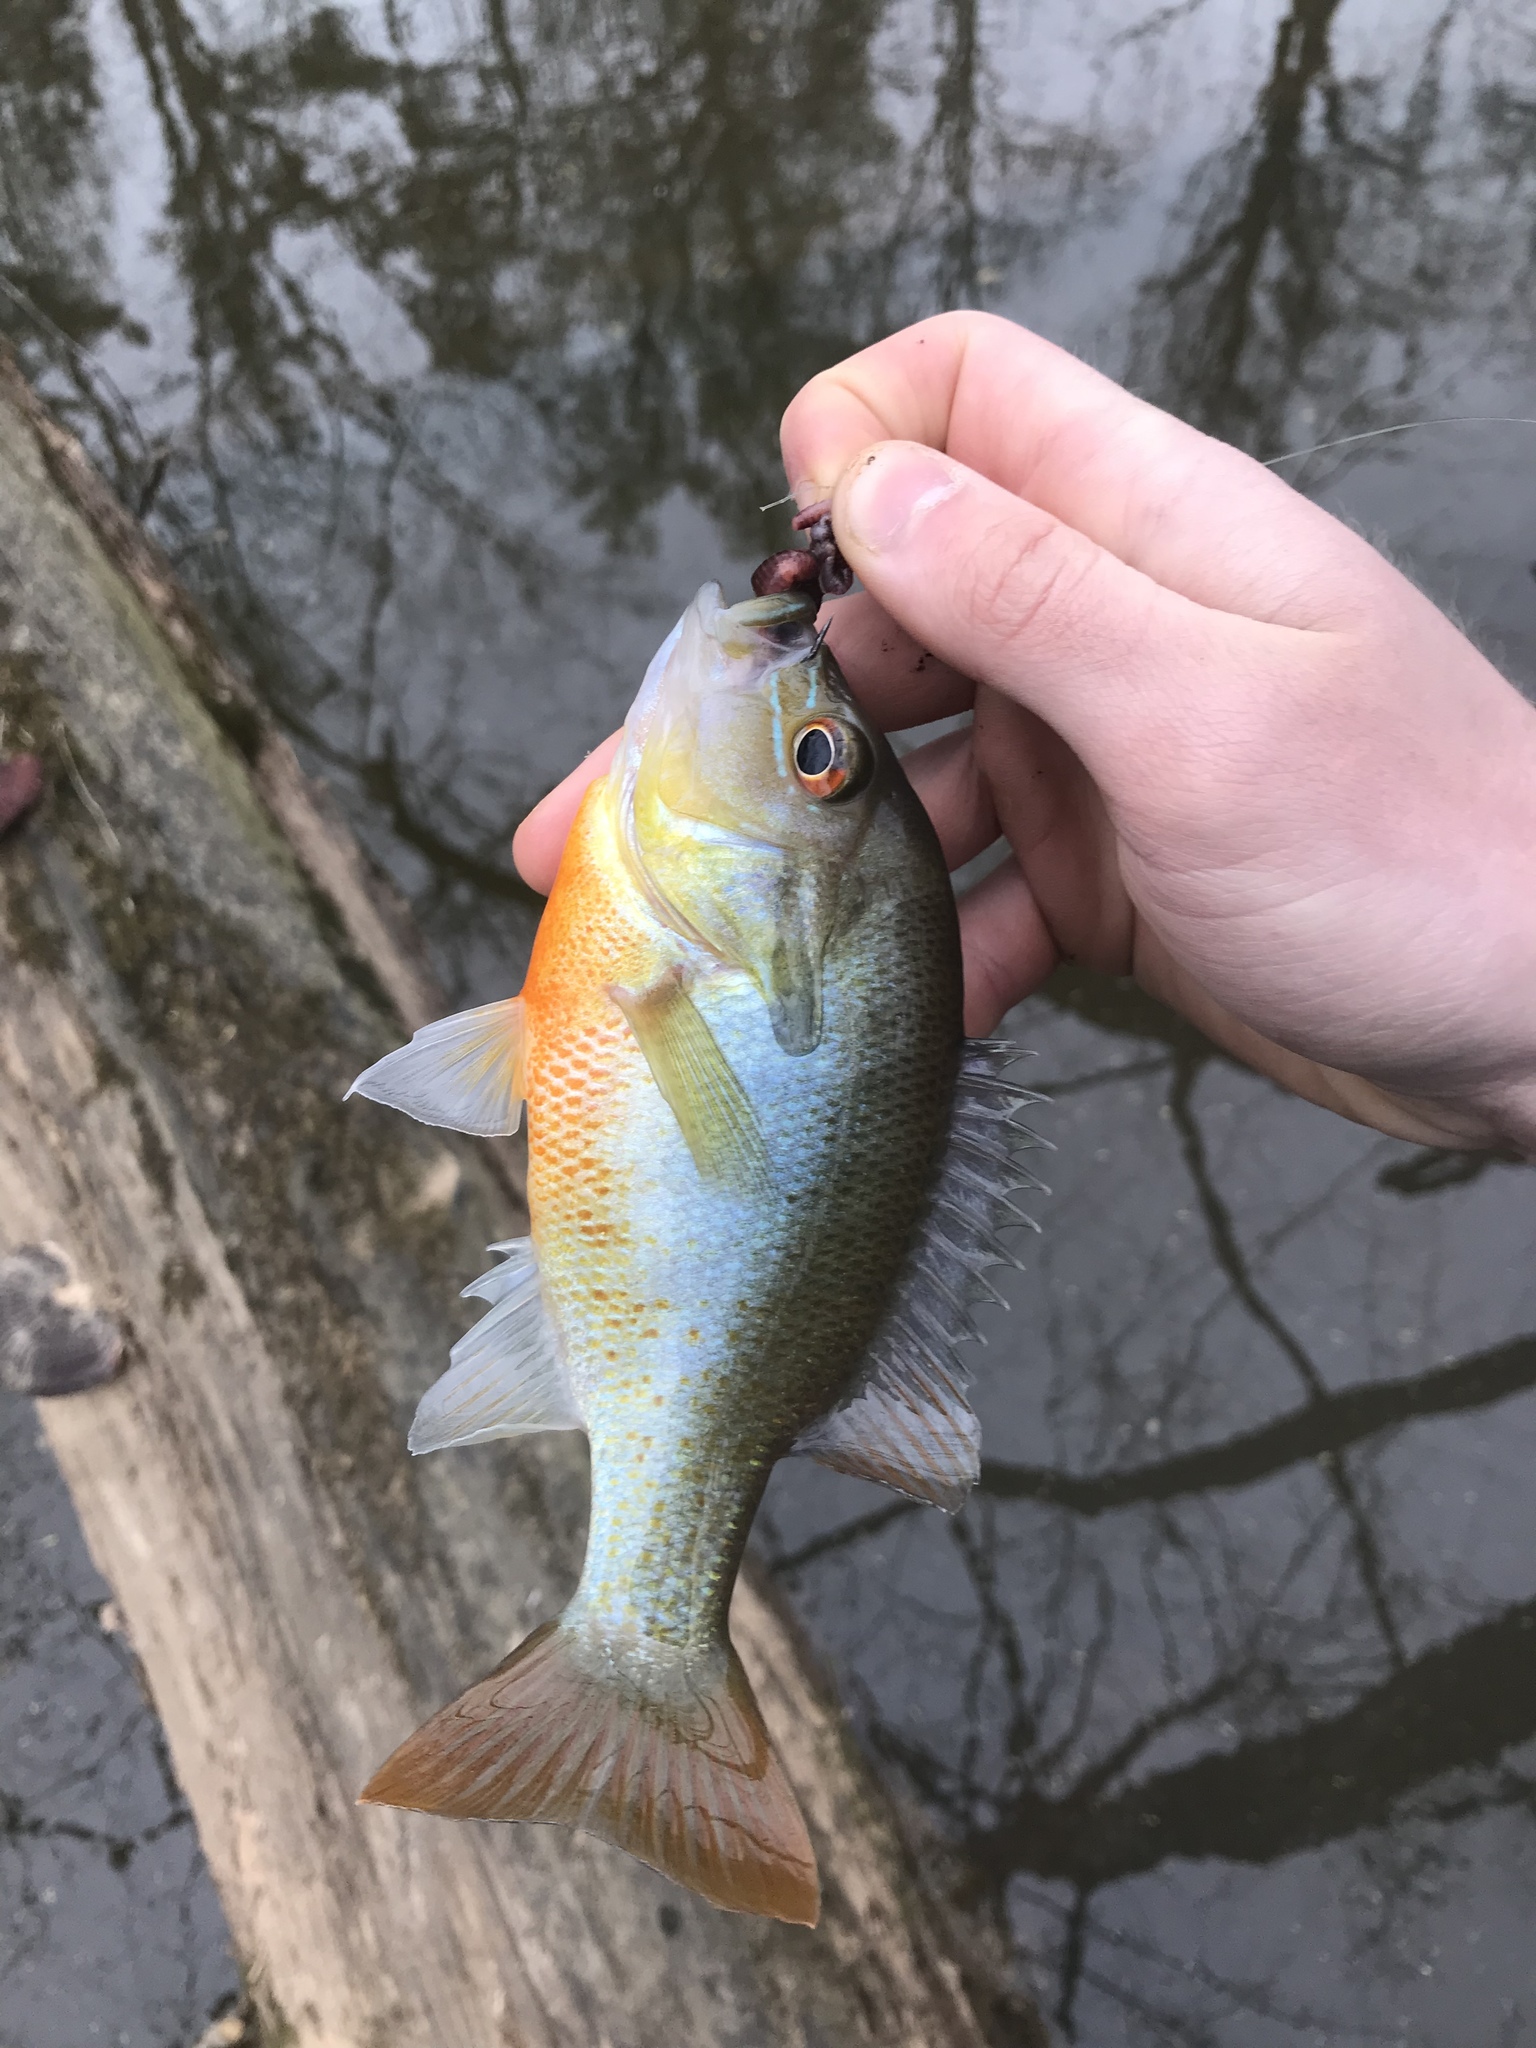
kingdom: Animalia
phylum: Chordata
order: Perciformes
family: Centrarchidae
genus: Lepomis
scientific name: Lepomis auritus
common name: Redbreast sunfish
